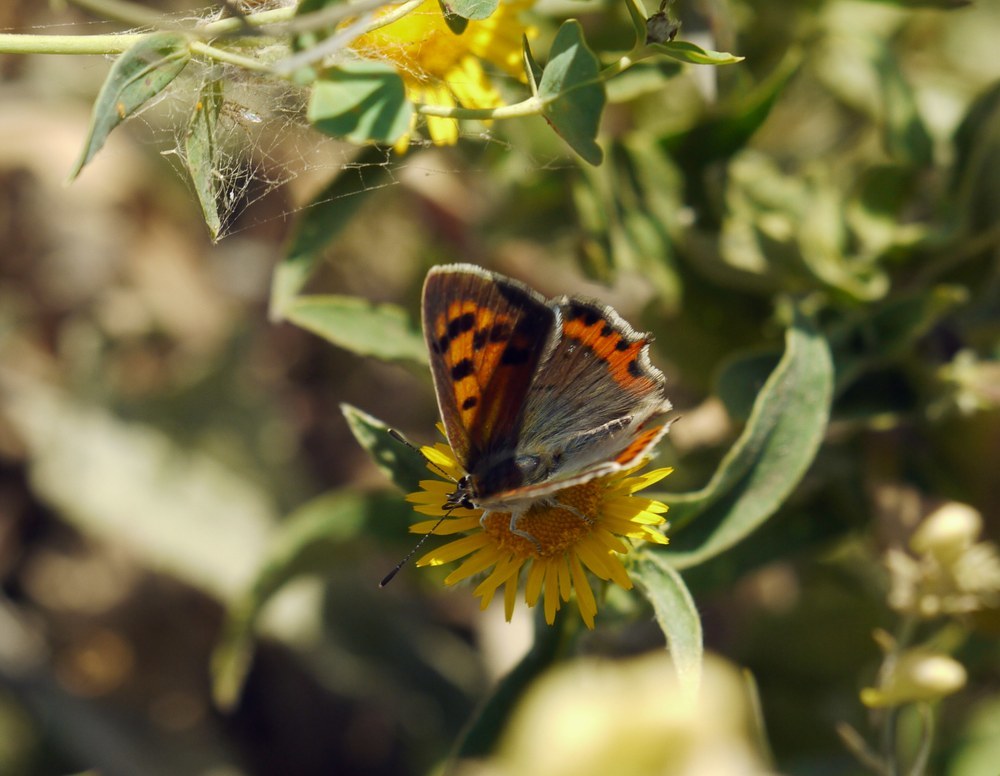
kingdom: Animalia
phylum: Arthropoda
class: Insecta
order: Lepidoptera
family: Lycaenidae
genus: Lycaena
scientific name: Lycaena phlaeas
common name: Small copper
